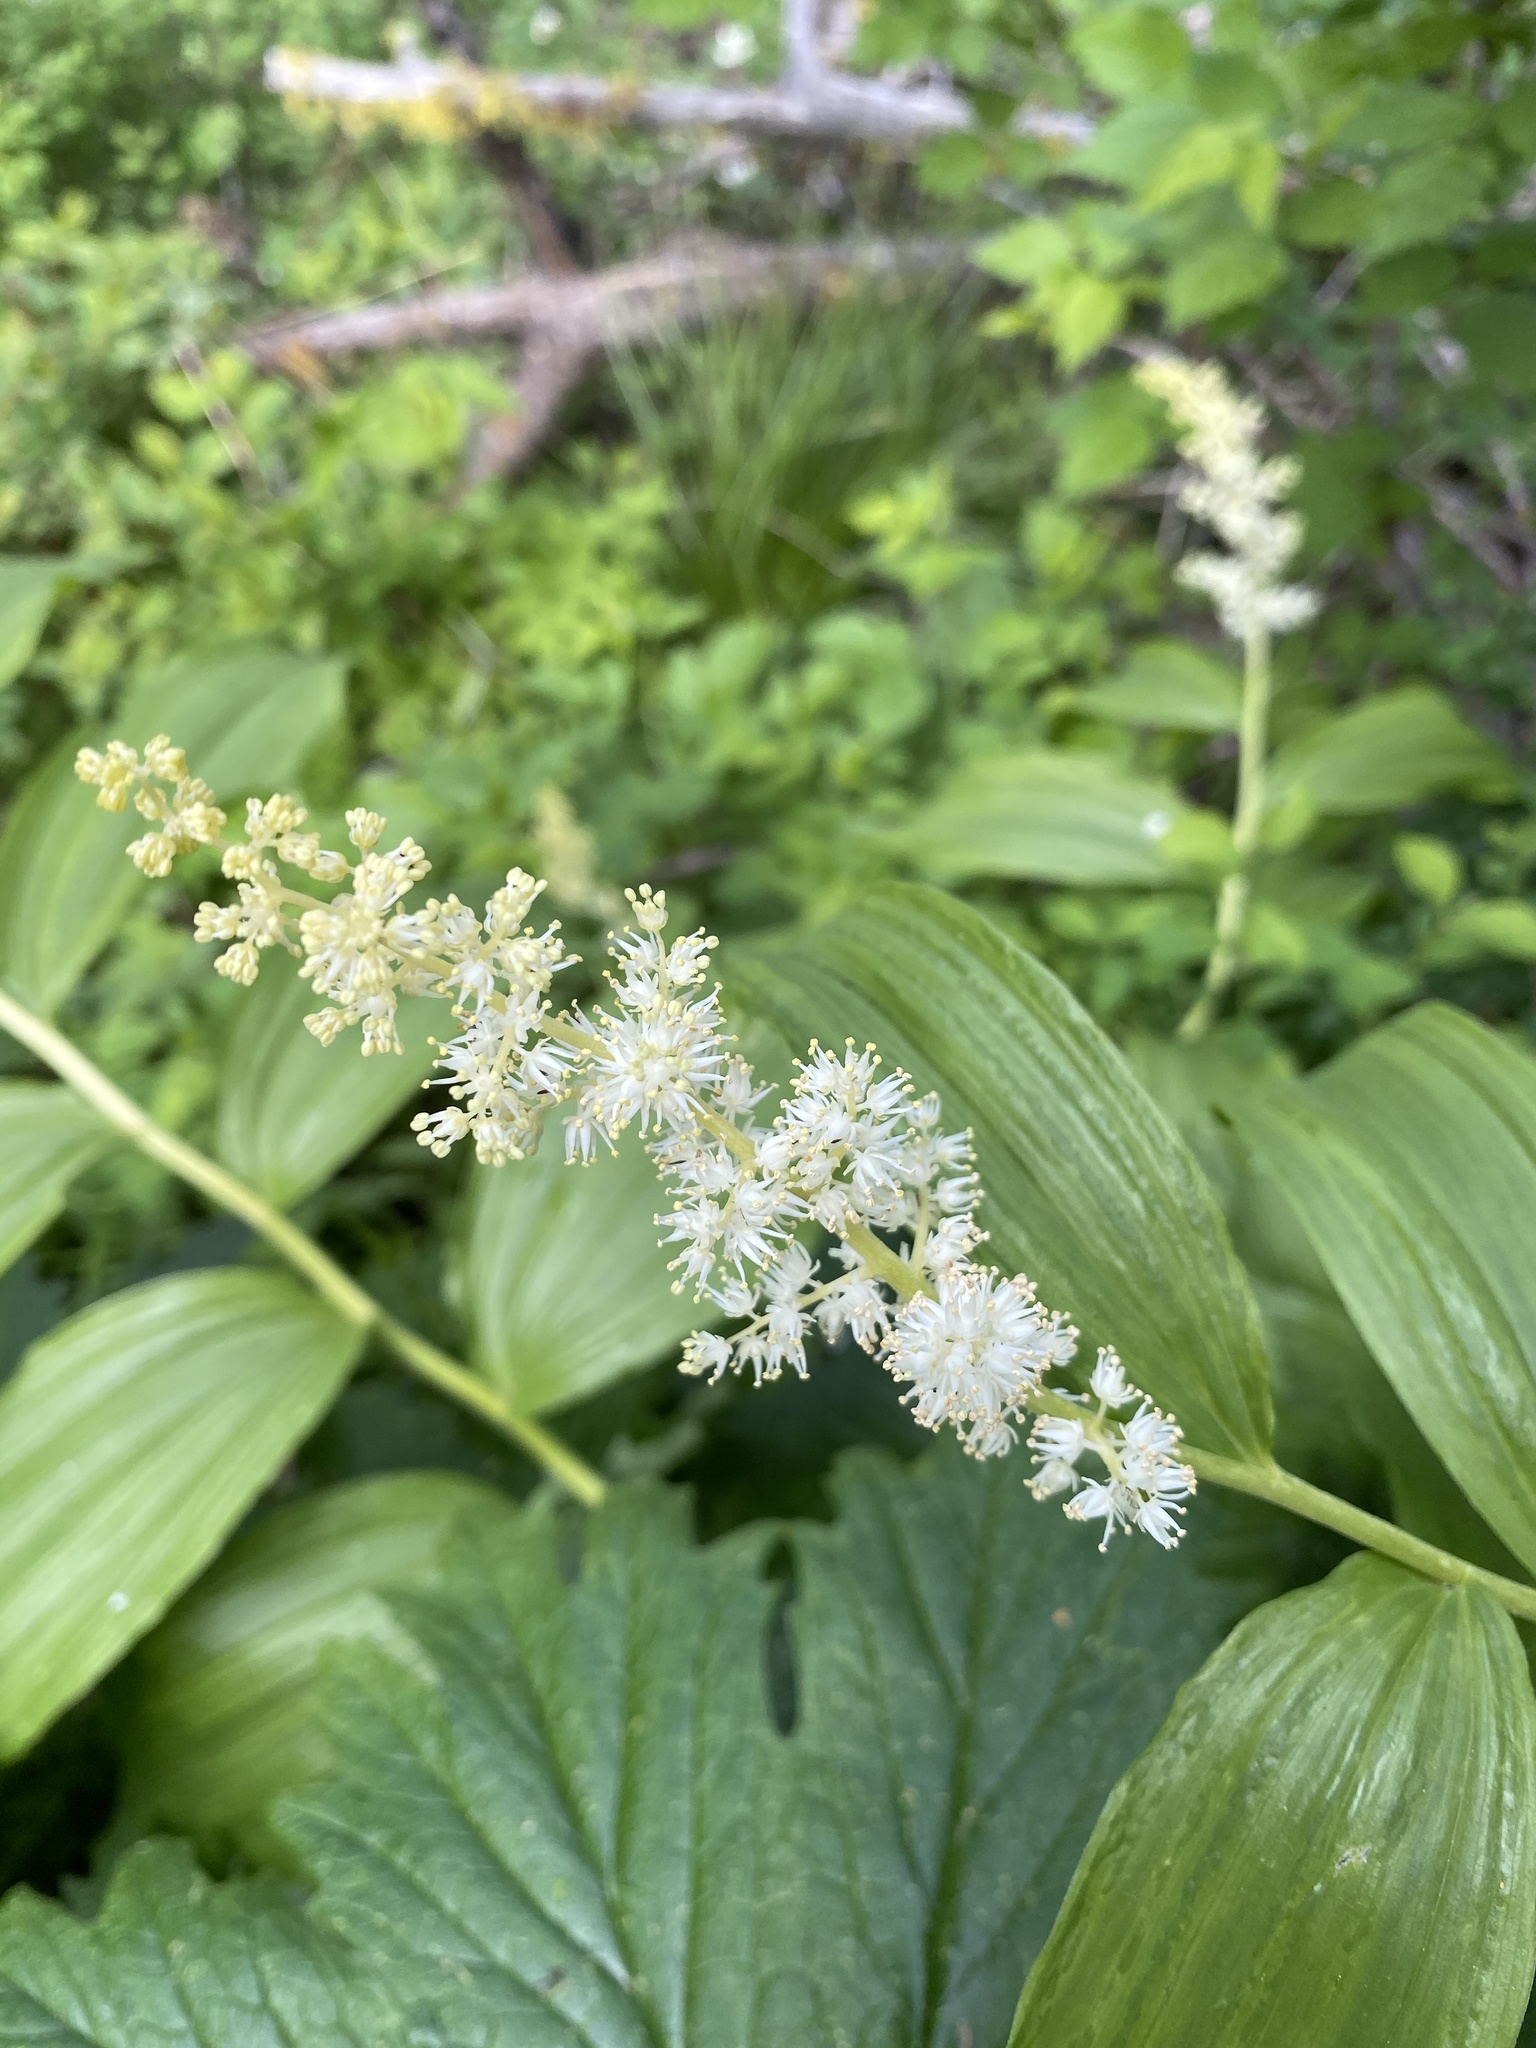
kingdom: Plantae
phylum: Tracheophyta
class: Liliopsida
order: Asparagales
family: Asparagaceae
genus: Maianthemum
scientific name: Maianthemum racemosum
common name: False spikenard
